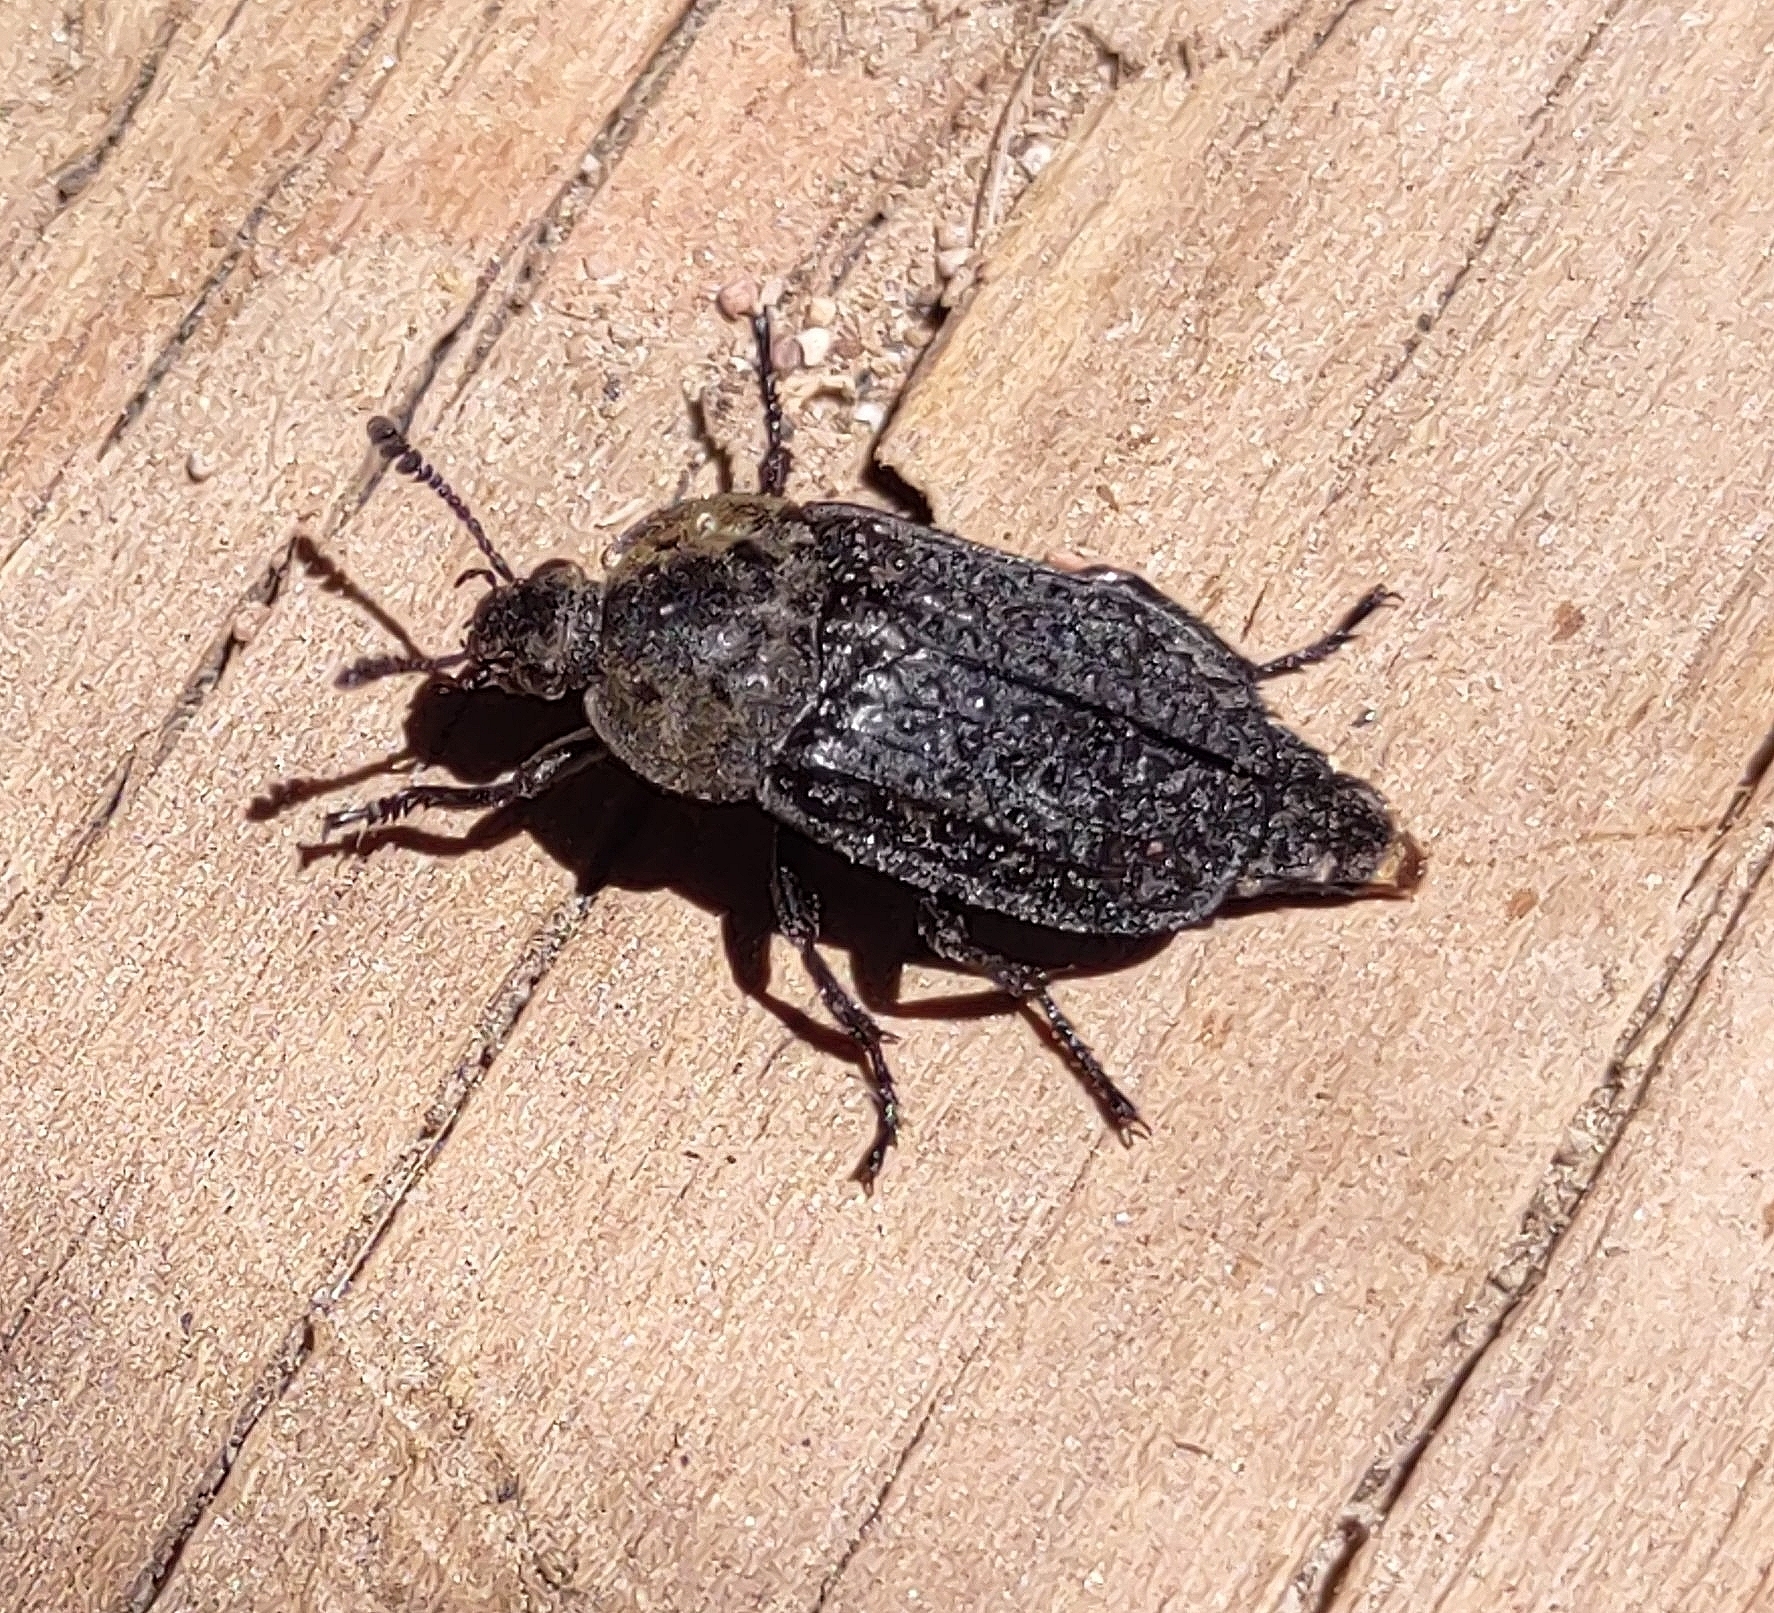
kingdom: Animalia
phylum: Arthropoda
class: Insecta
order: Coleoptera
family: Staphylinidae
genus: Thanatophilus
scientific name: Thanatophilus lapponicus
